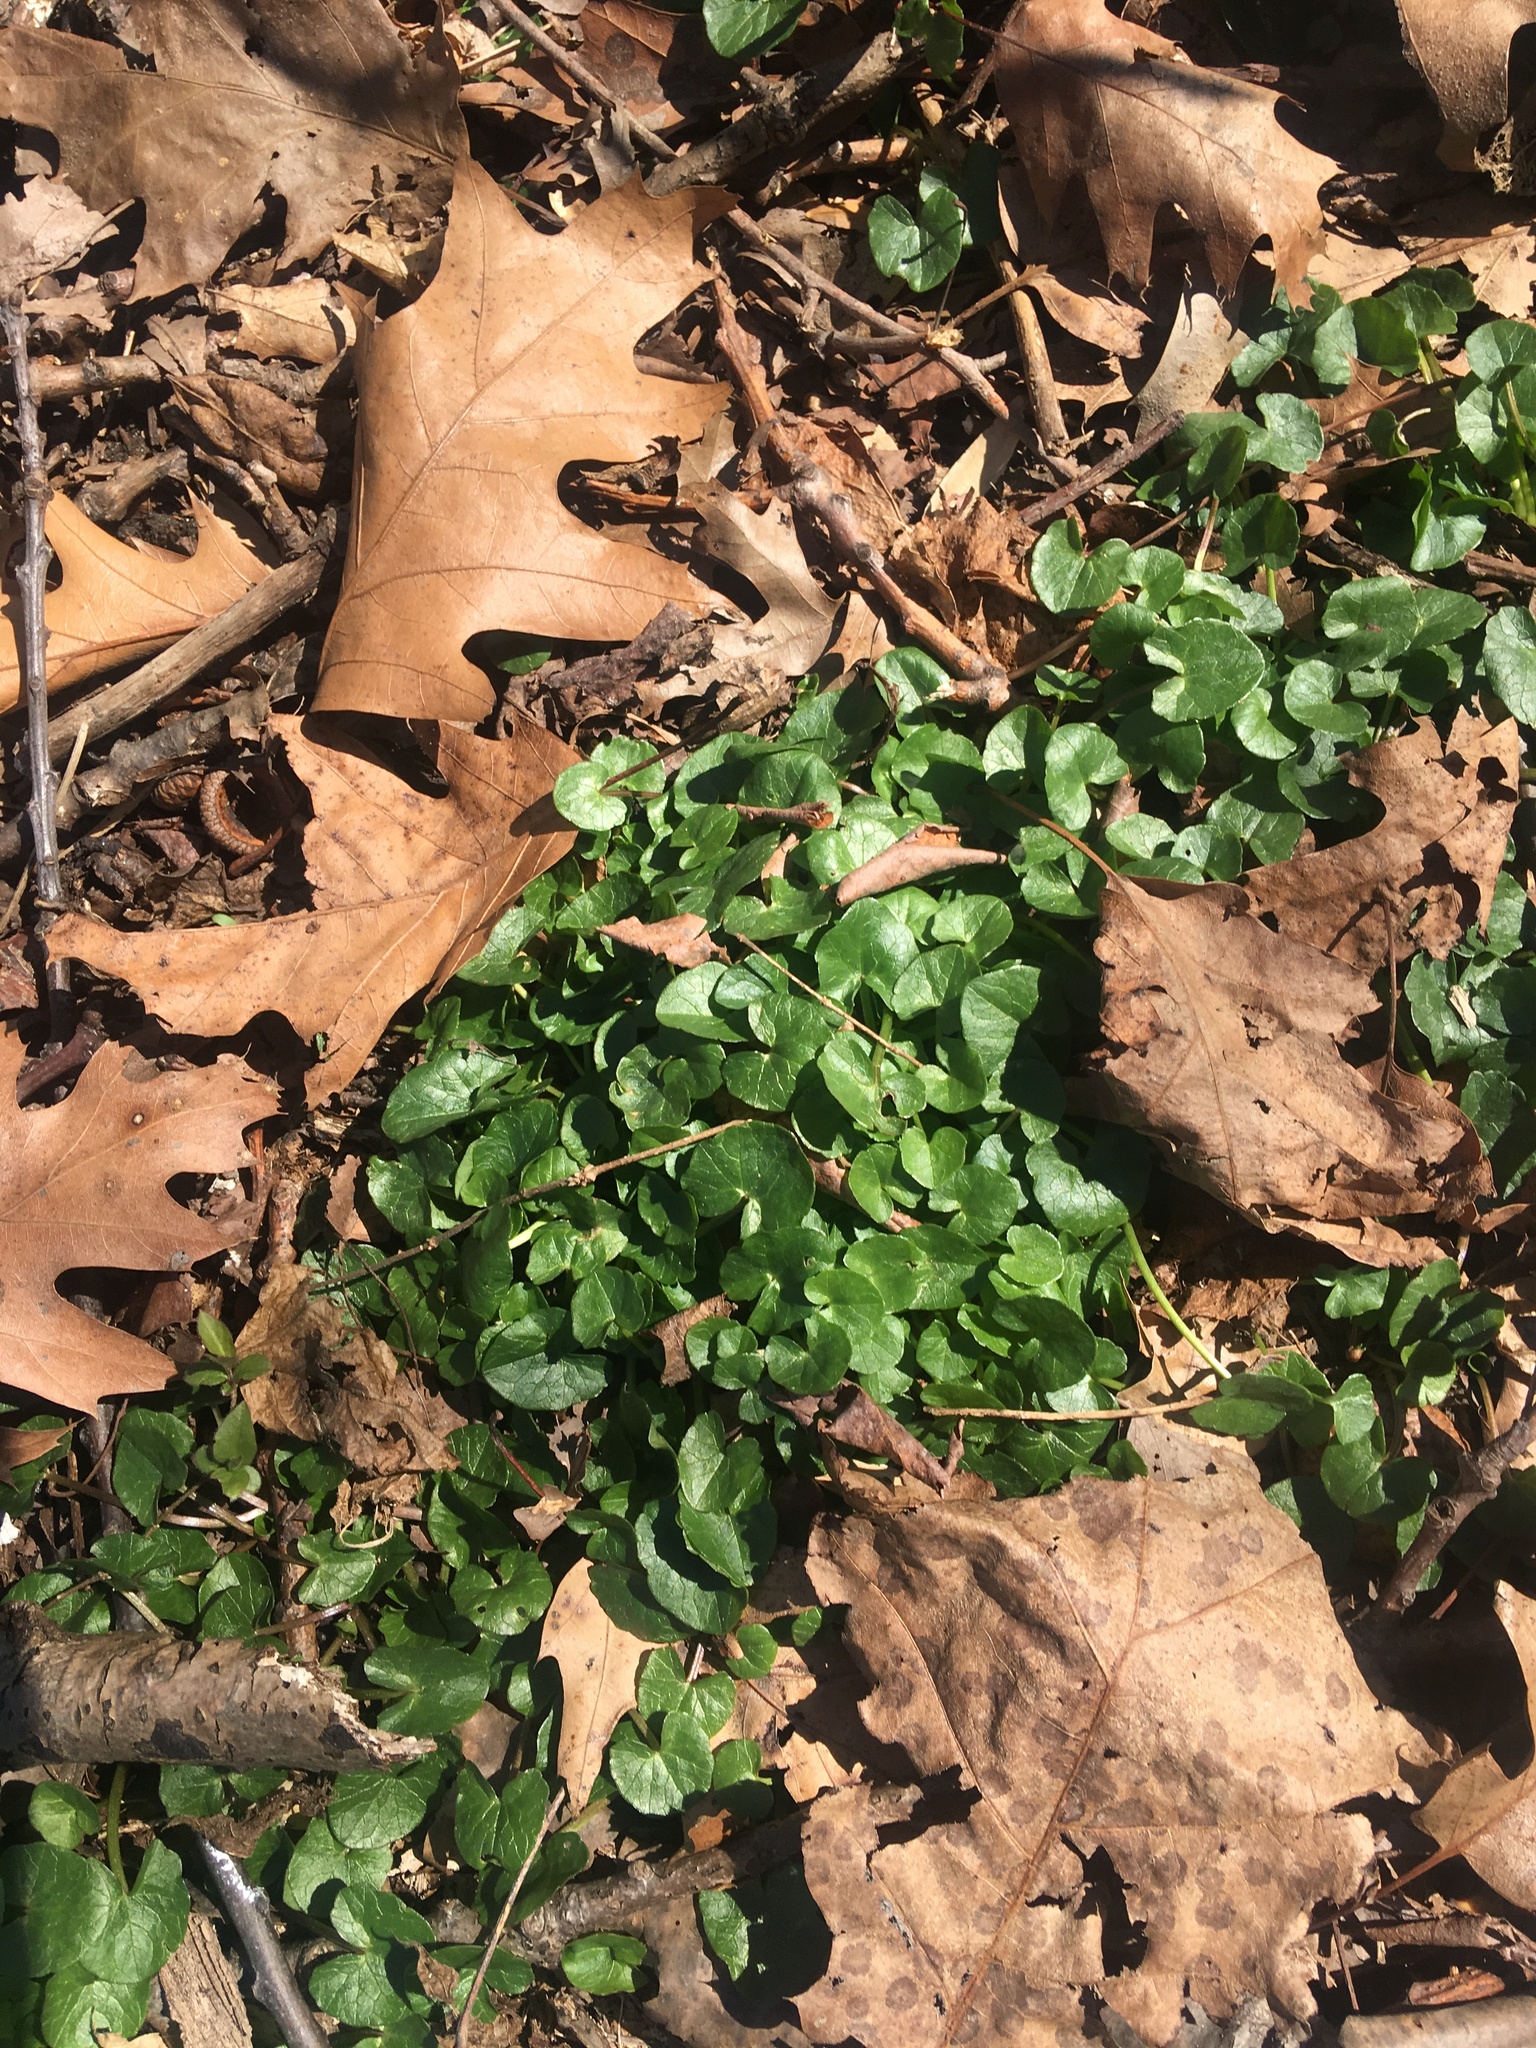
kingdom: Plantae
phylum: Tracheophyta
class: Magnoliopsida
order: Ranunculales
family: Ranunculaceae
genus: Ficaria
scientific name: Ficaria verna
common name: Lesser celandine
